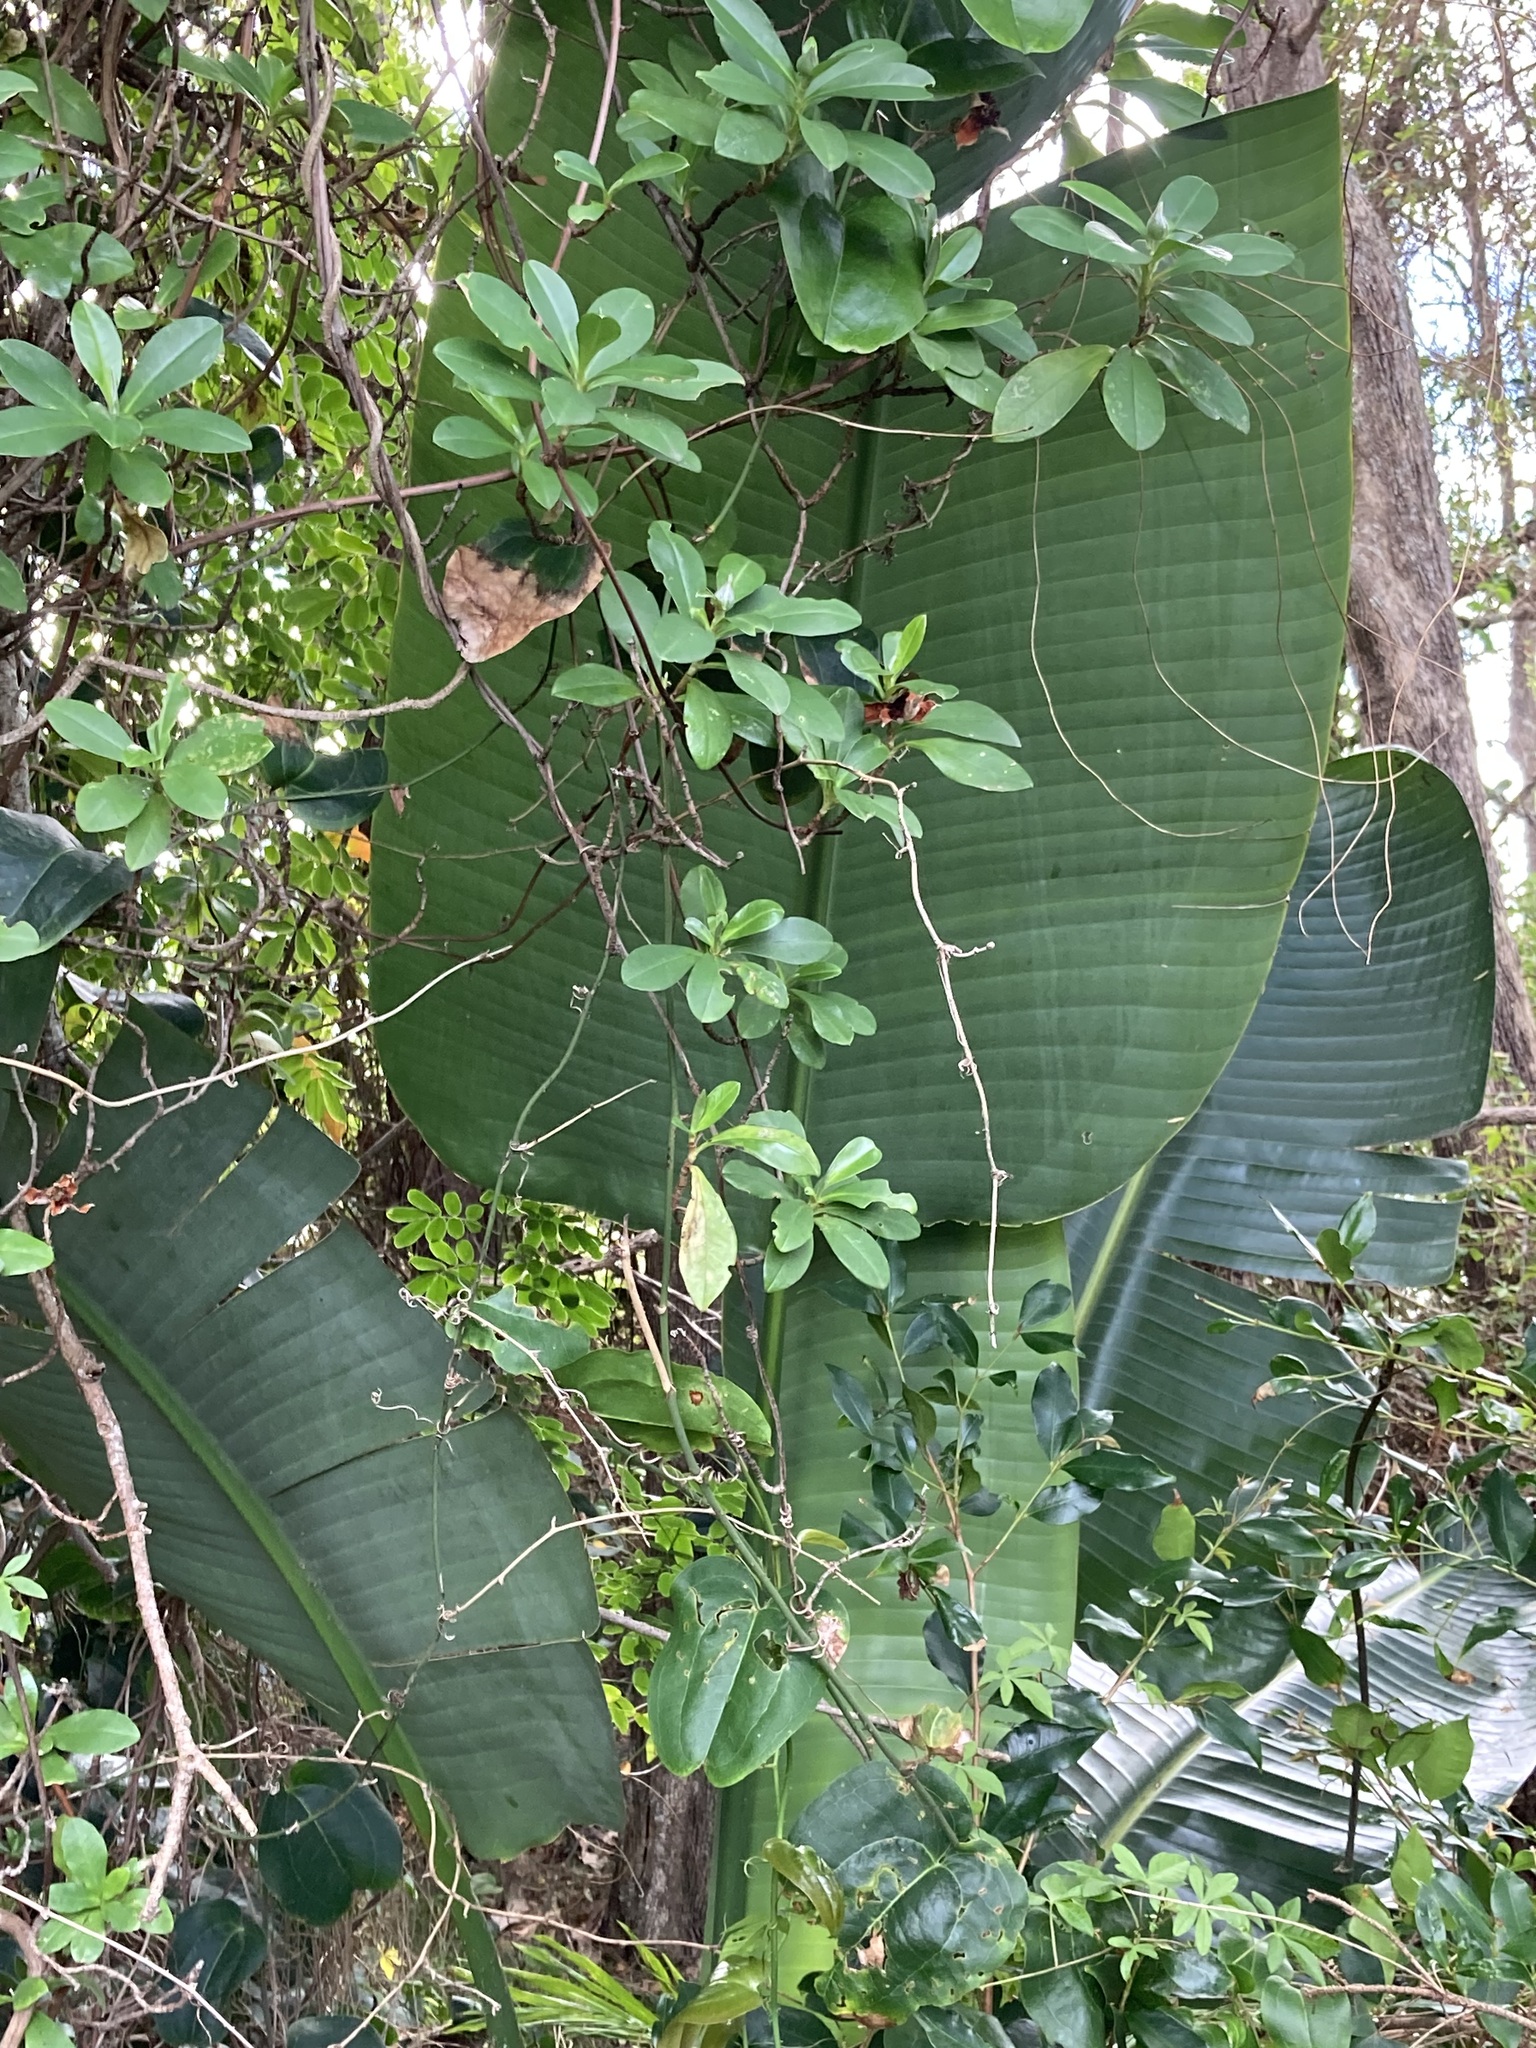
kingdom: Plantae
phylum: Tracheophyta
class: Liliopsida
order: Zingiberales
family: Strelitziaceae
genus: Strelitzia
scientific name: Strelitzia nicolai
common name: Bird-of-paradise tree
